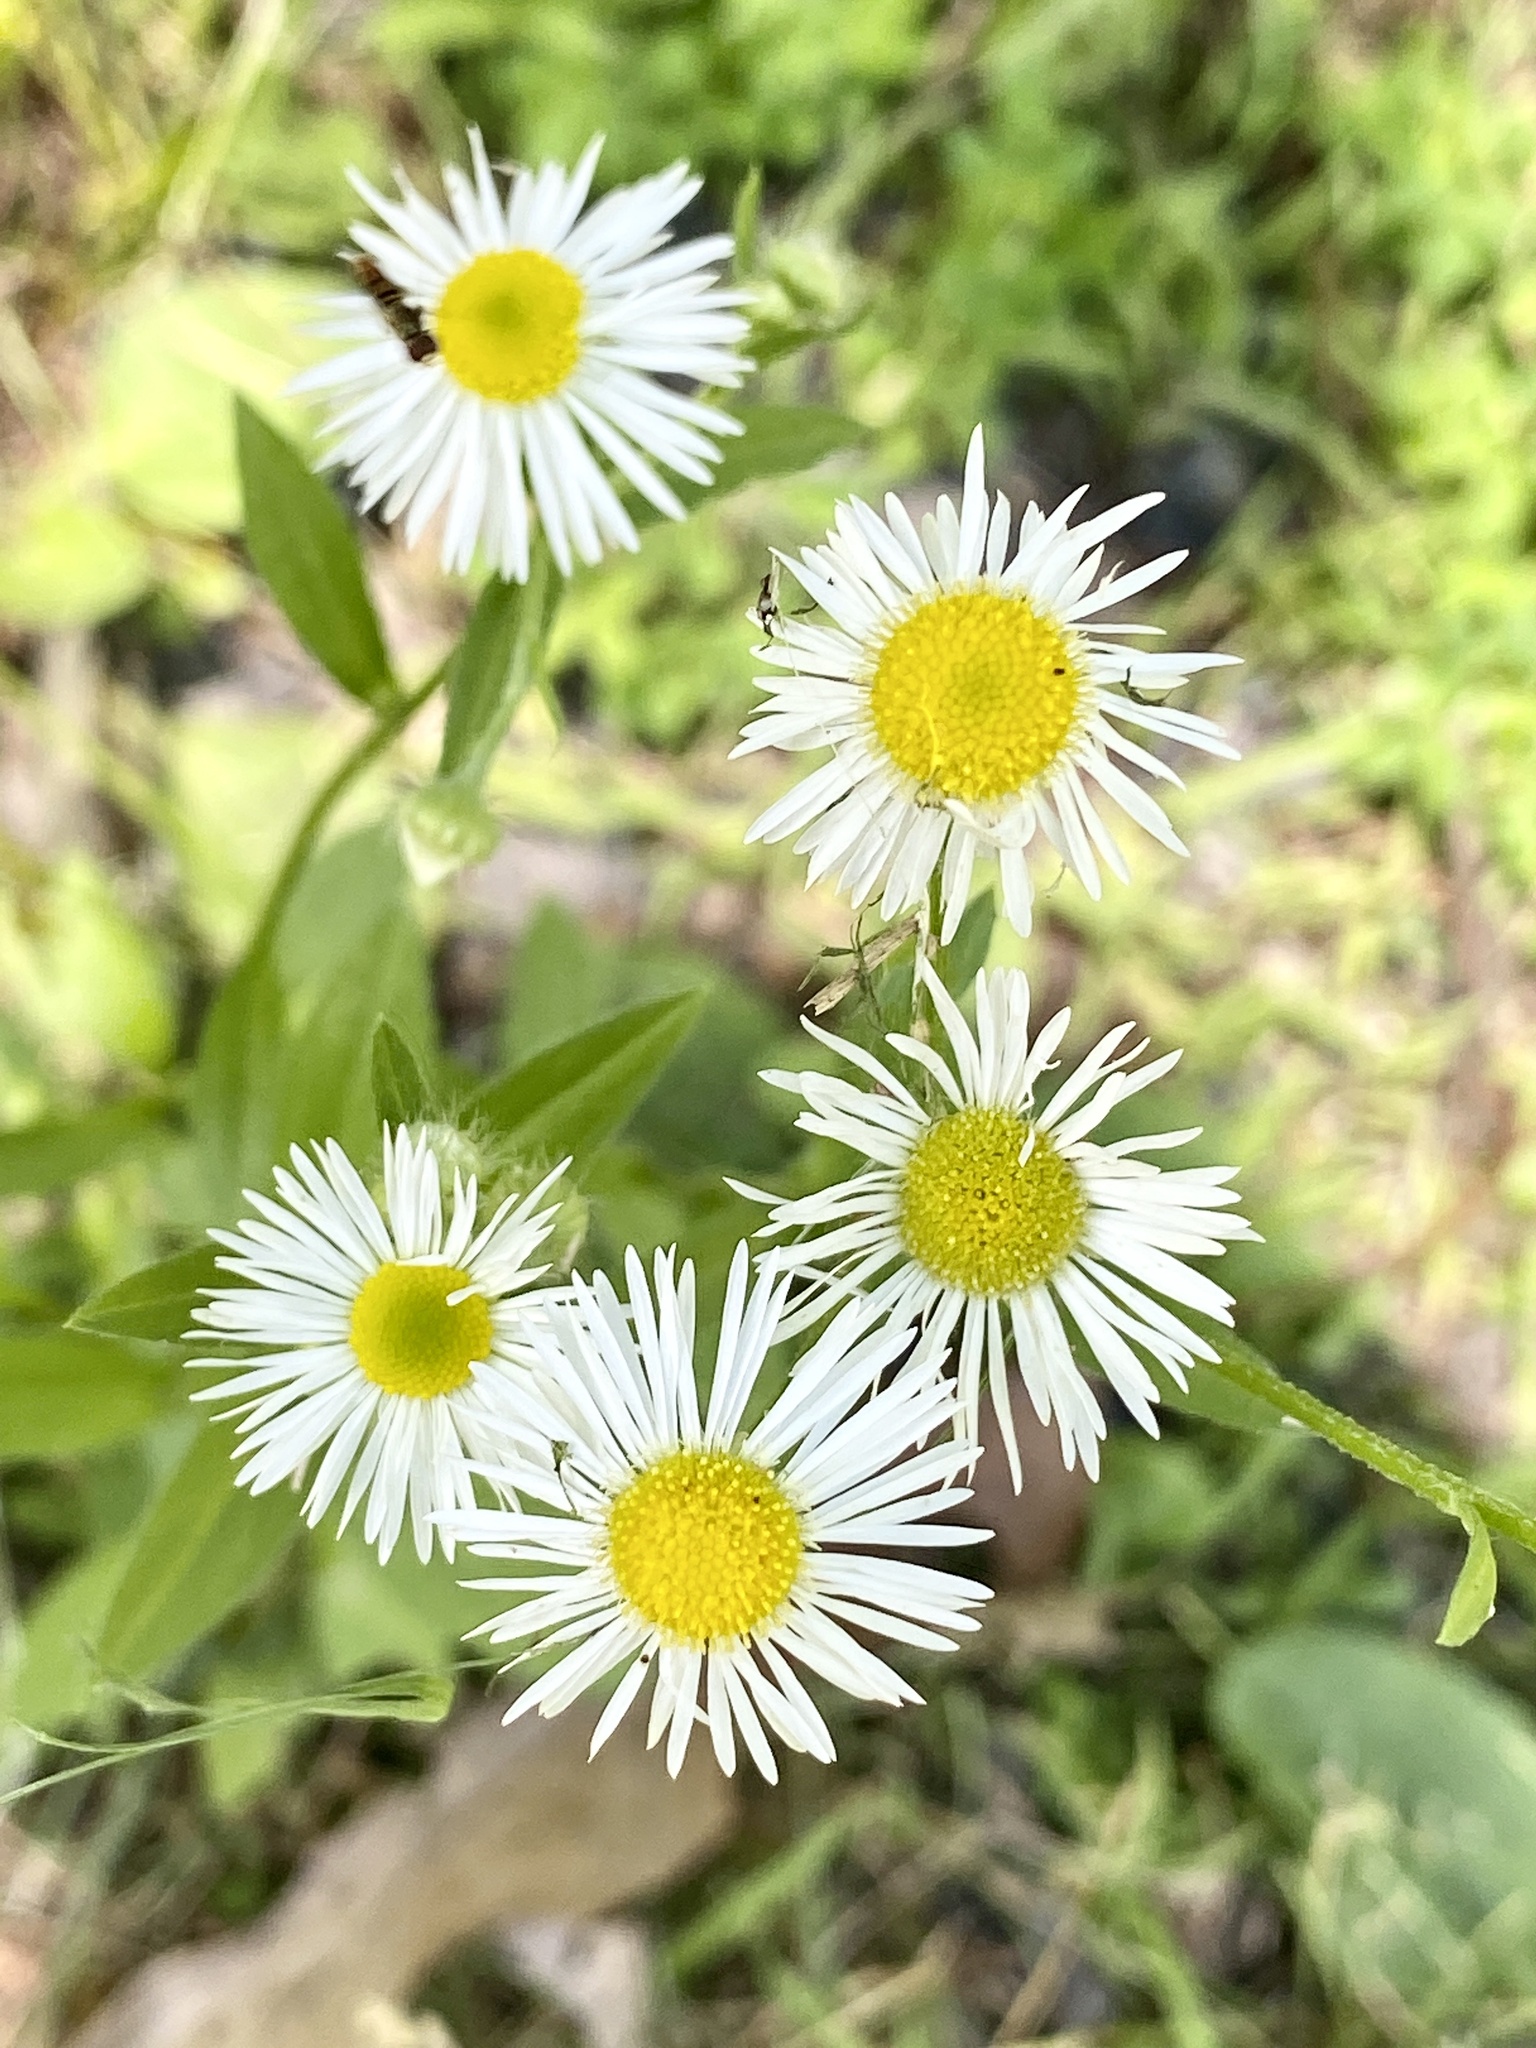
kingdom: Plantae
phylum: Tracheophyta
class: Magnoliopsida
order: Asterales
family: Asteraceae
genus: Erigeron
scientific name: Erigeron annuus
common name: Tall fleabane
